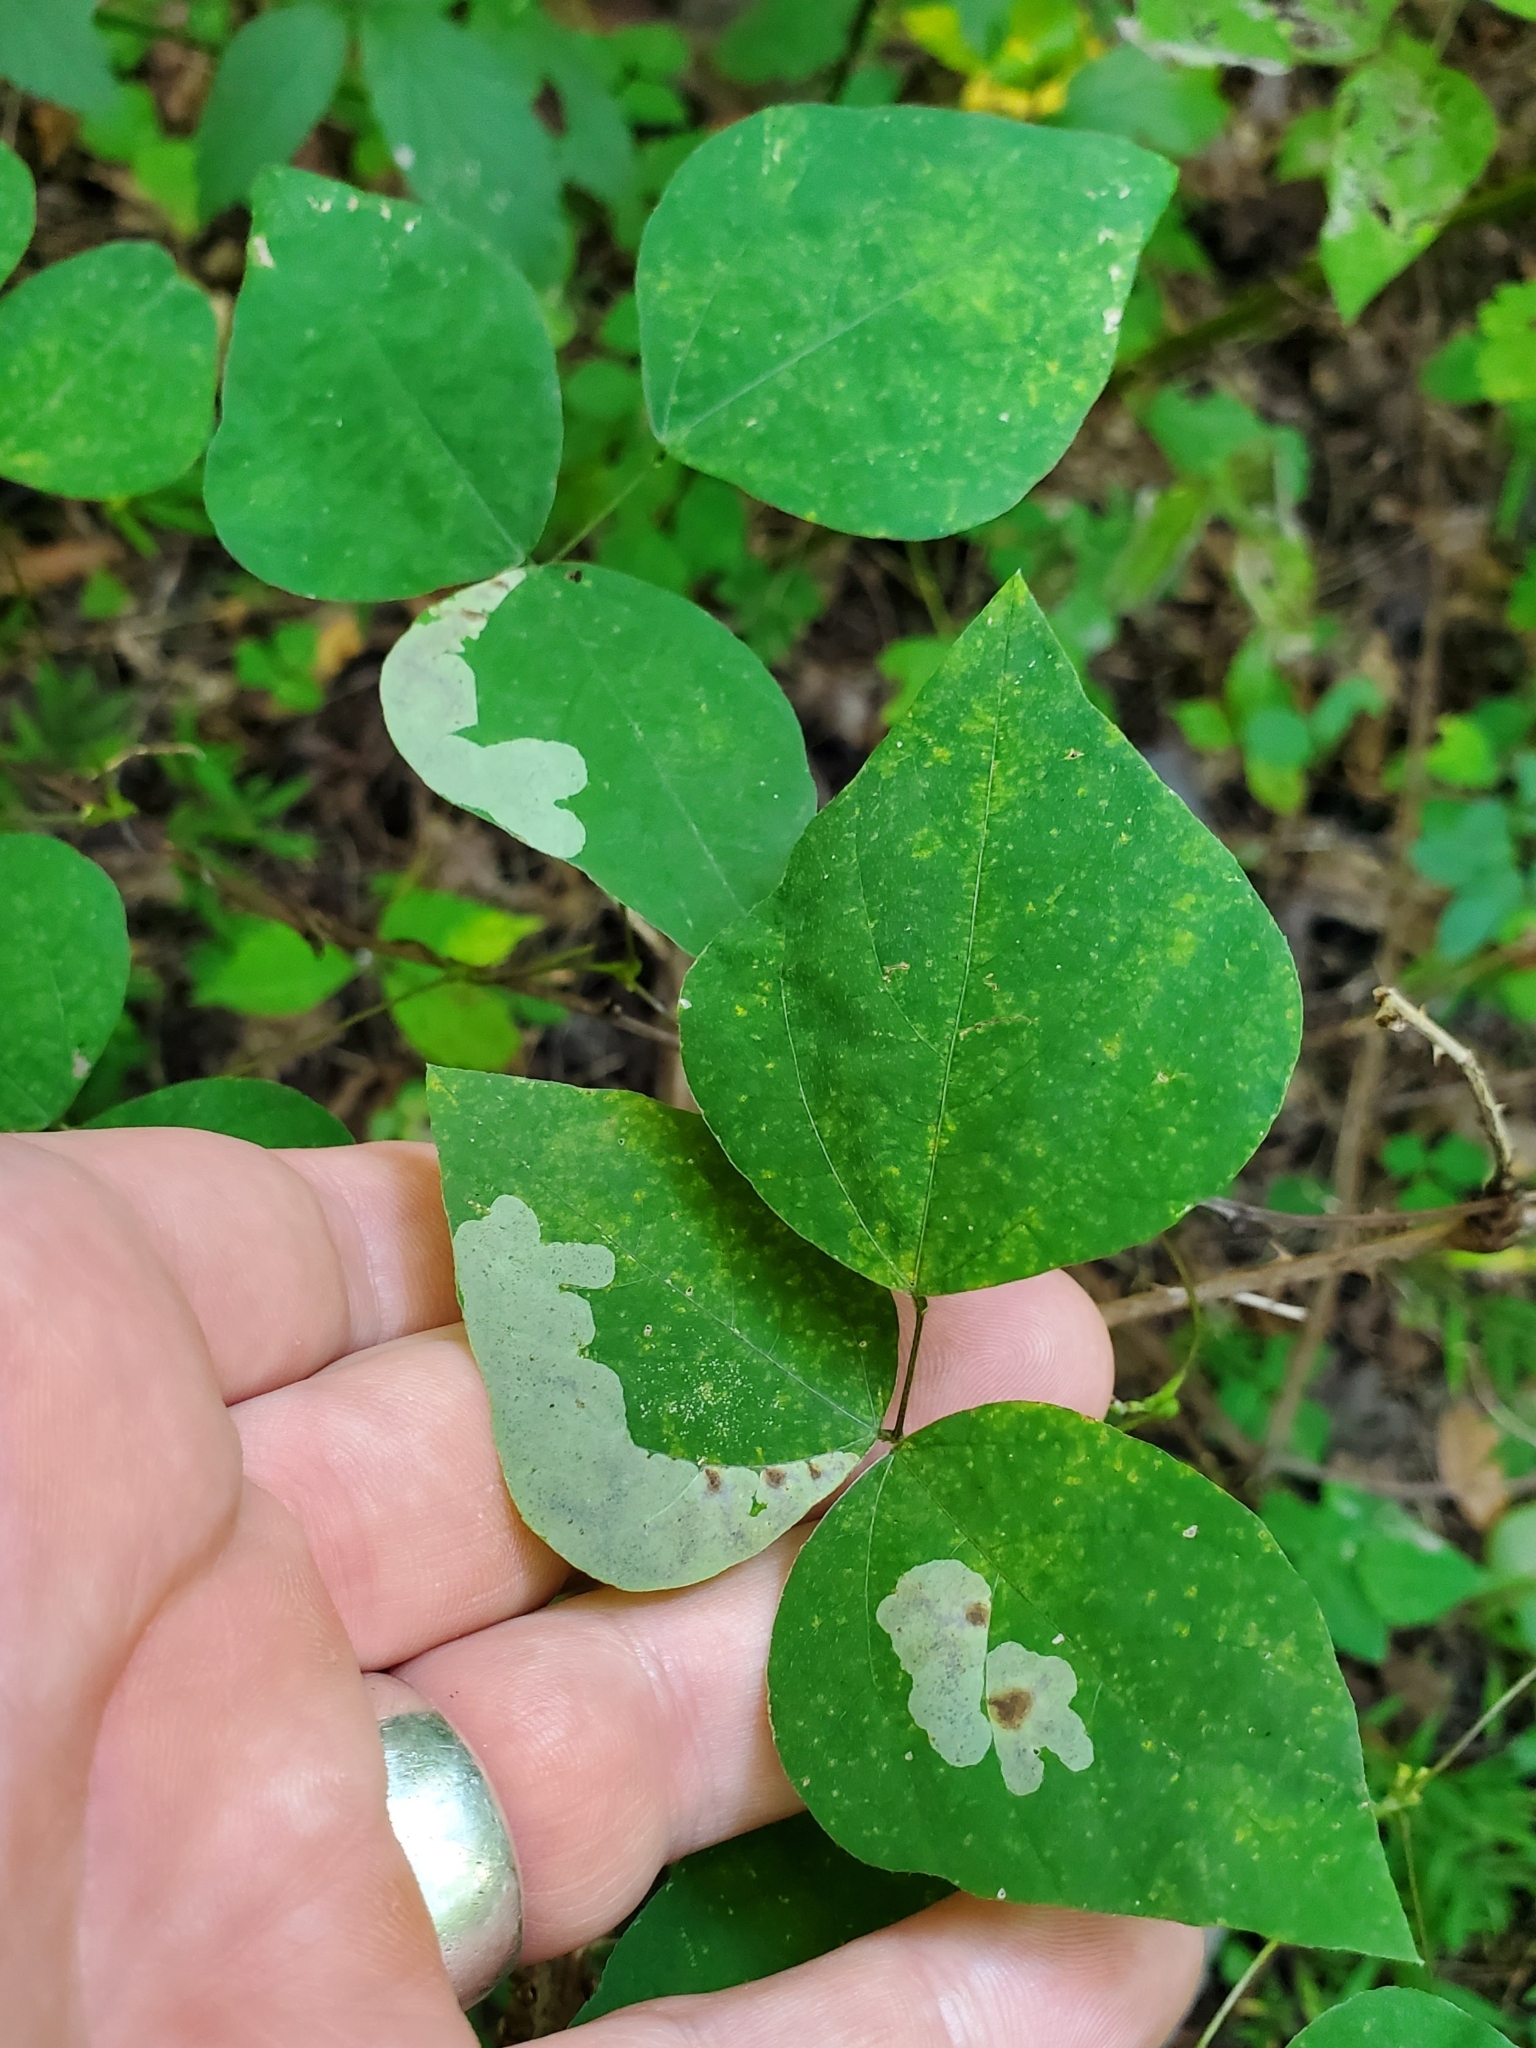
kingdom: Animalia
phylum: Arthropoda
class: Insecta
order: Lepidoptera
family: Gracillariidae
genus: Leucanthiza
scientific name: Leucanthiza amphicarpeaefoliella
